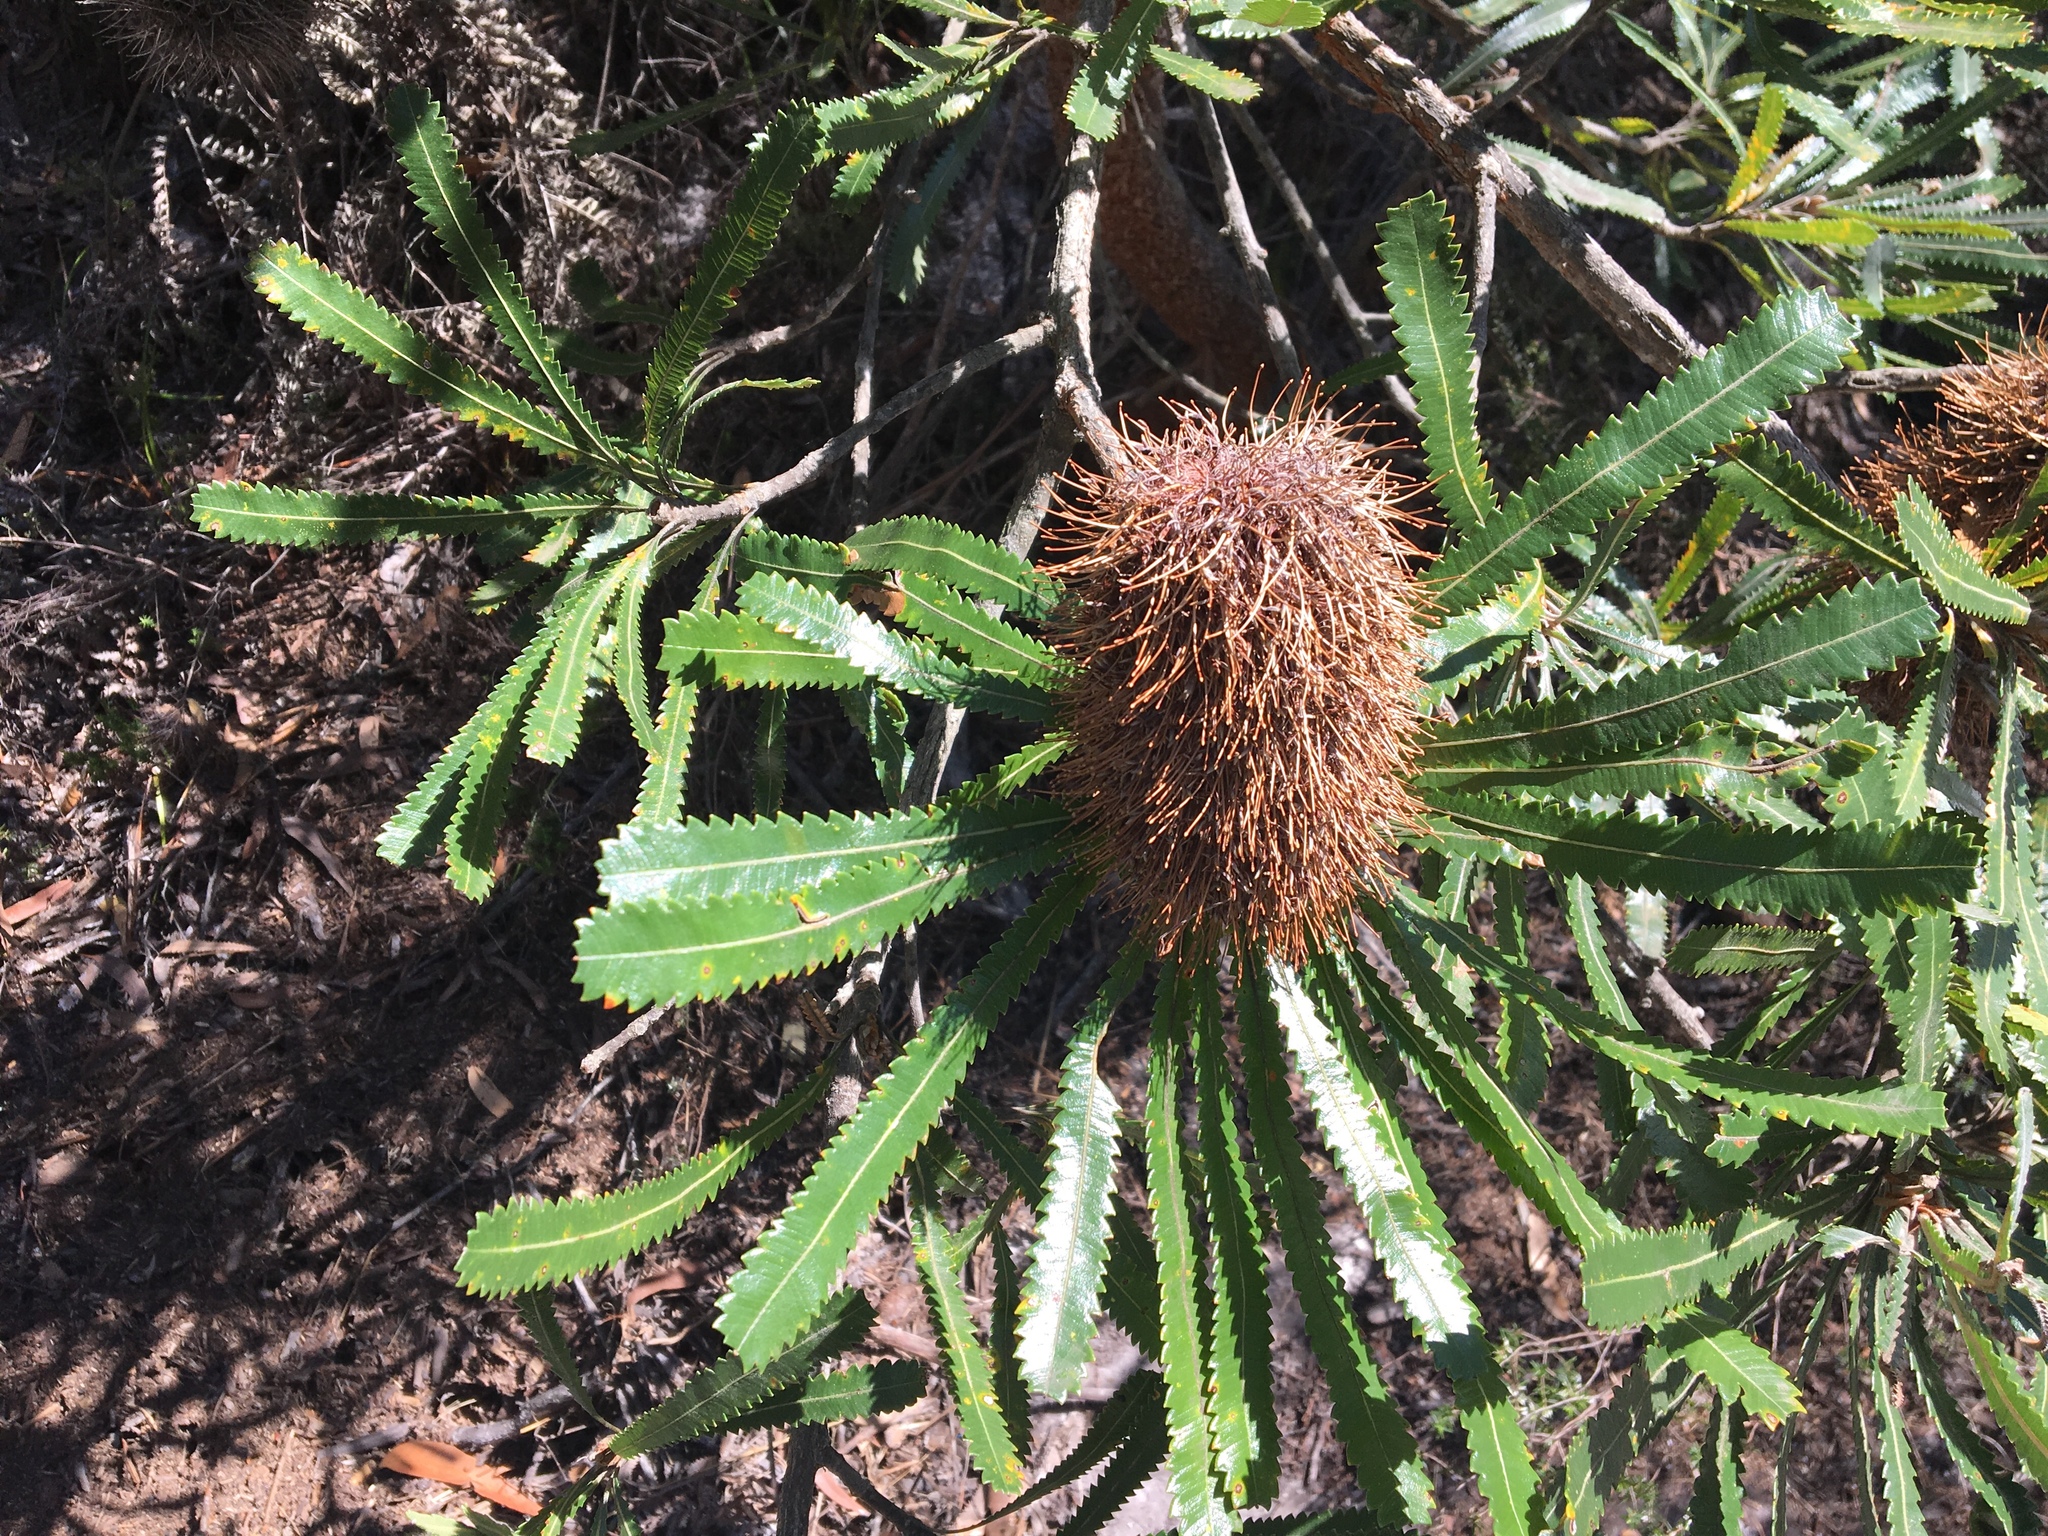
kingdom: Plantae
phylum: Tracheophyta
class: Magnoliopsida
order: Proteales
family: Proteaceae
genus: Banksia
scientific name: Banksia serrata
